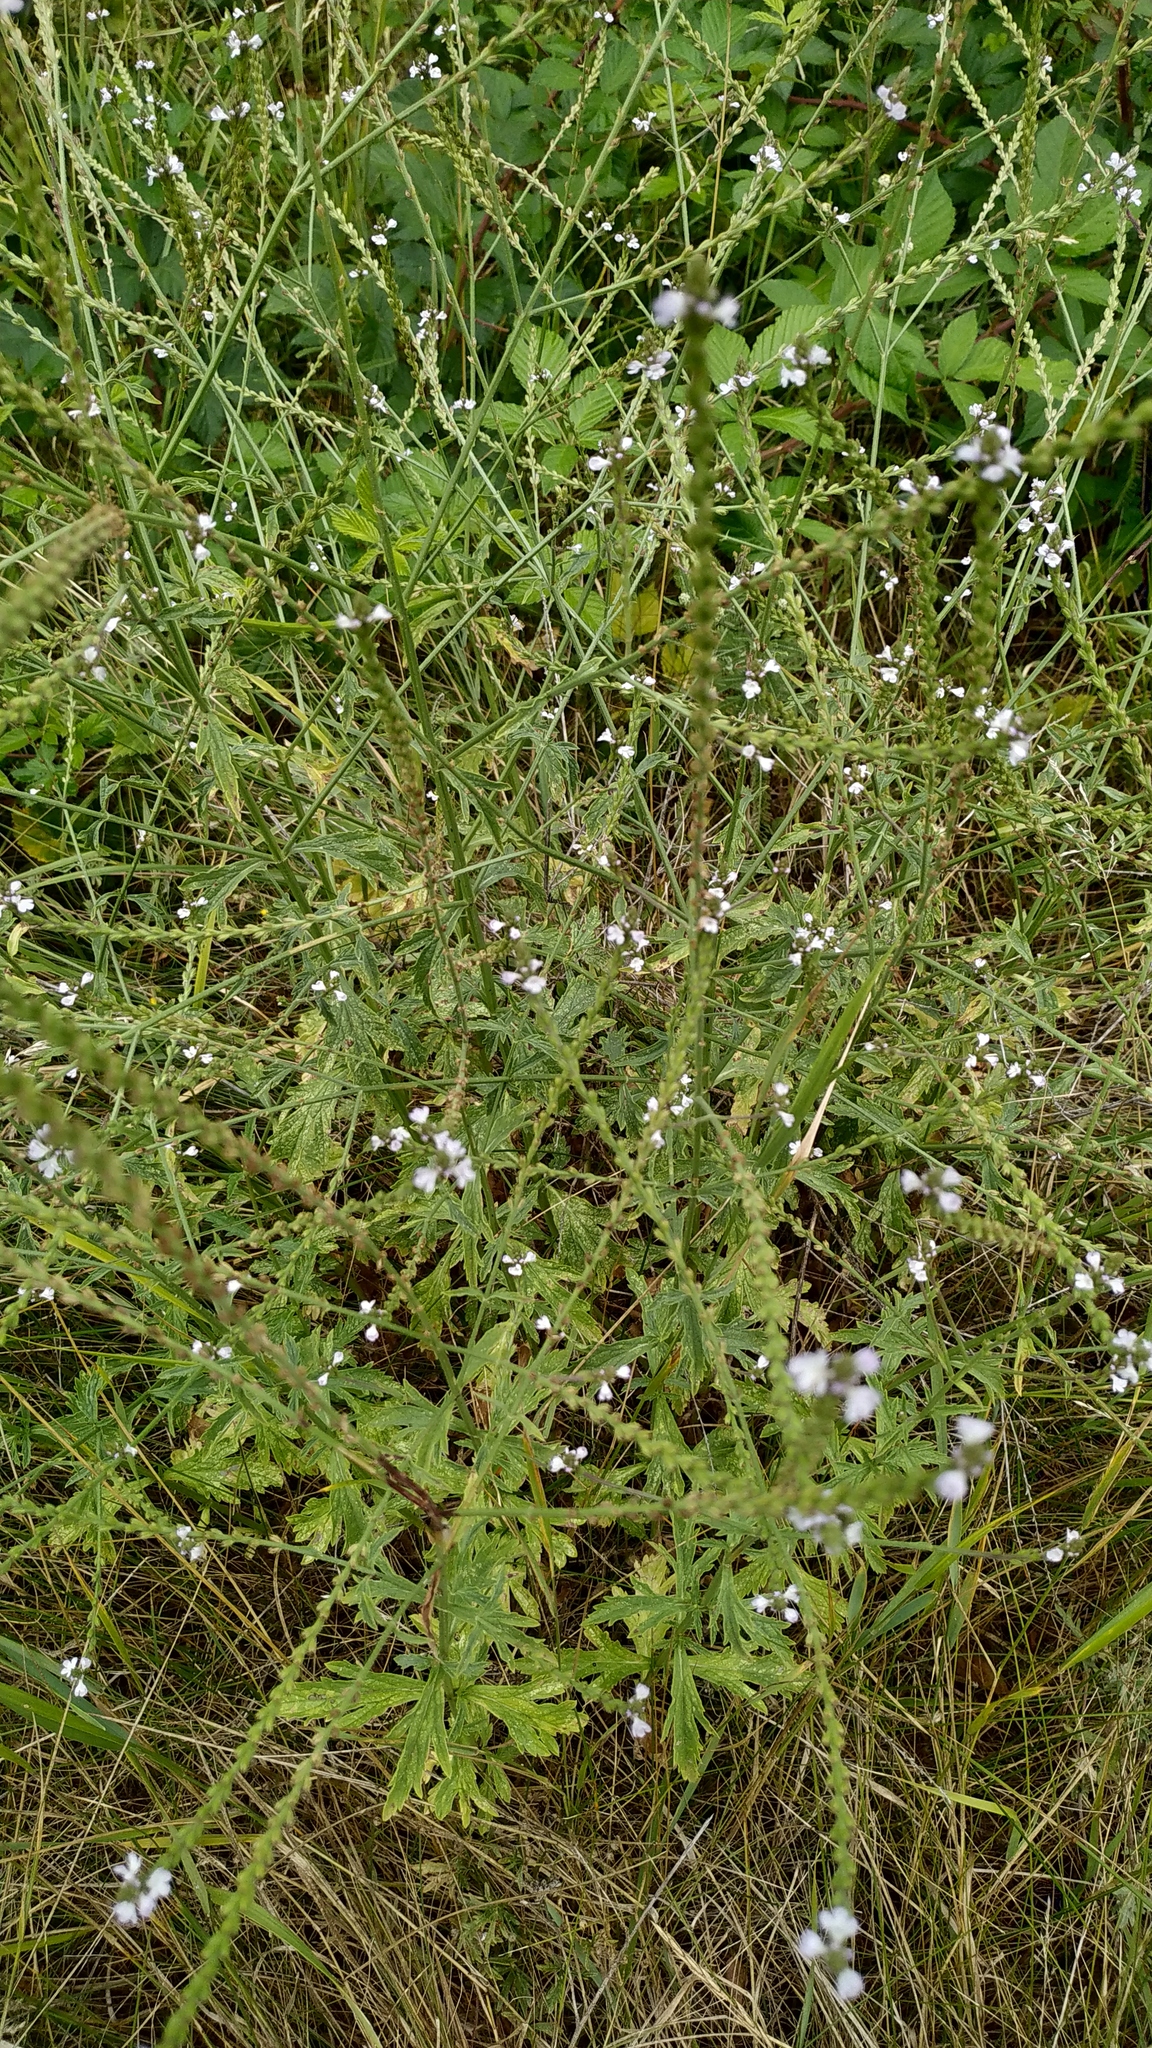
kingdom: Plantae
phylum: Tracheophyta
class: Magnoliopsida
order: Lamiales
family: Verbenaceae
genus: Verbena
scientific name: Verbena officinalis
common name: Vervain
